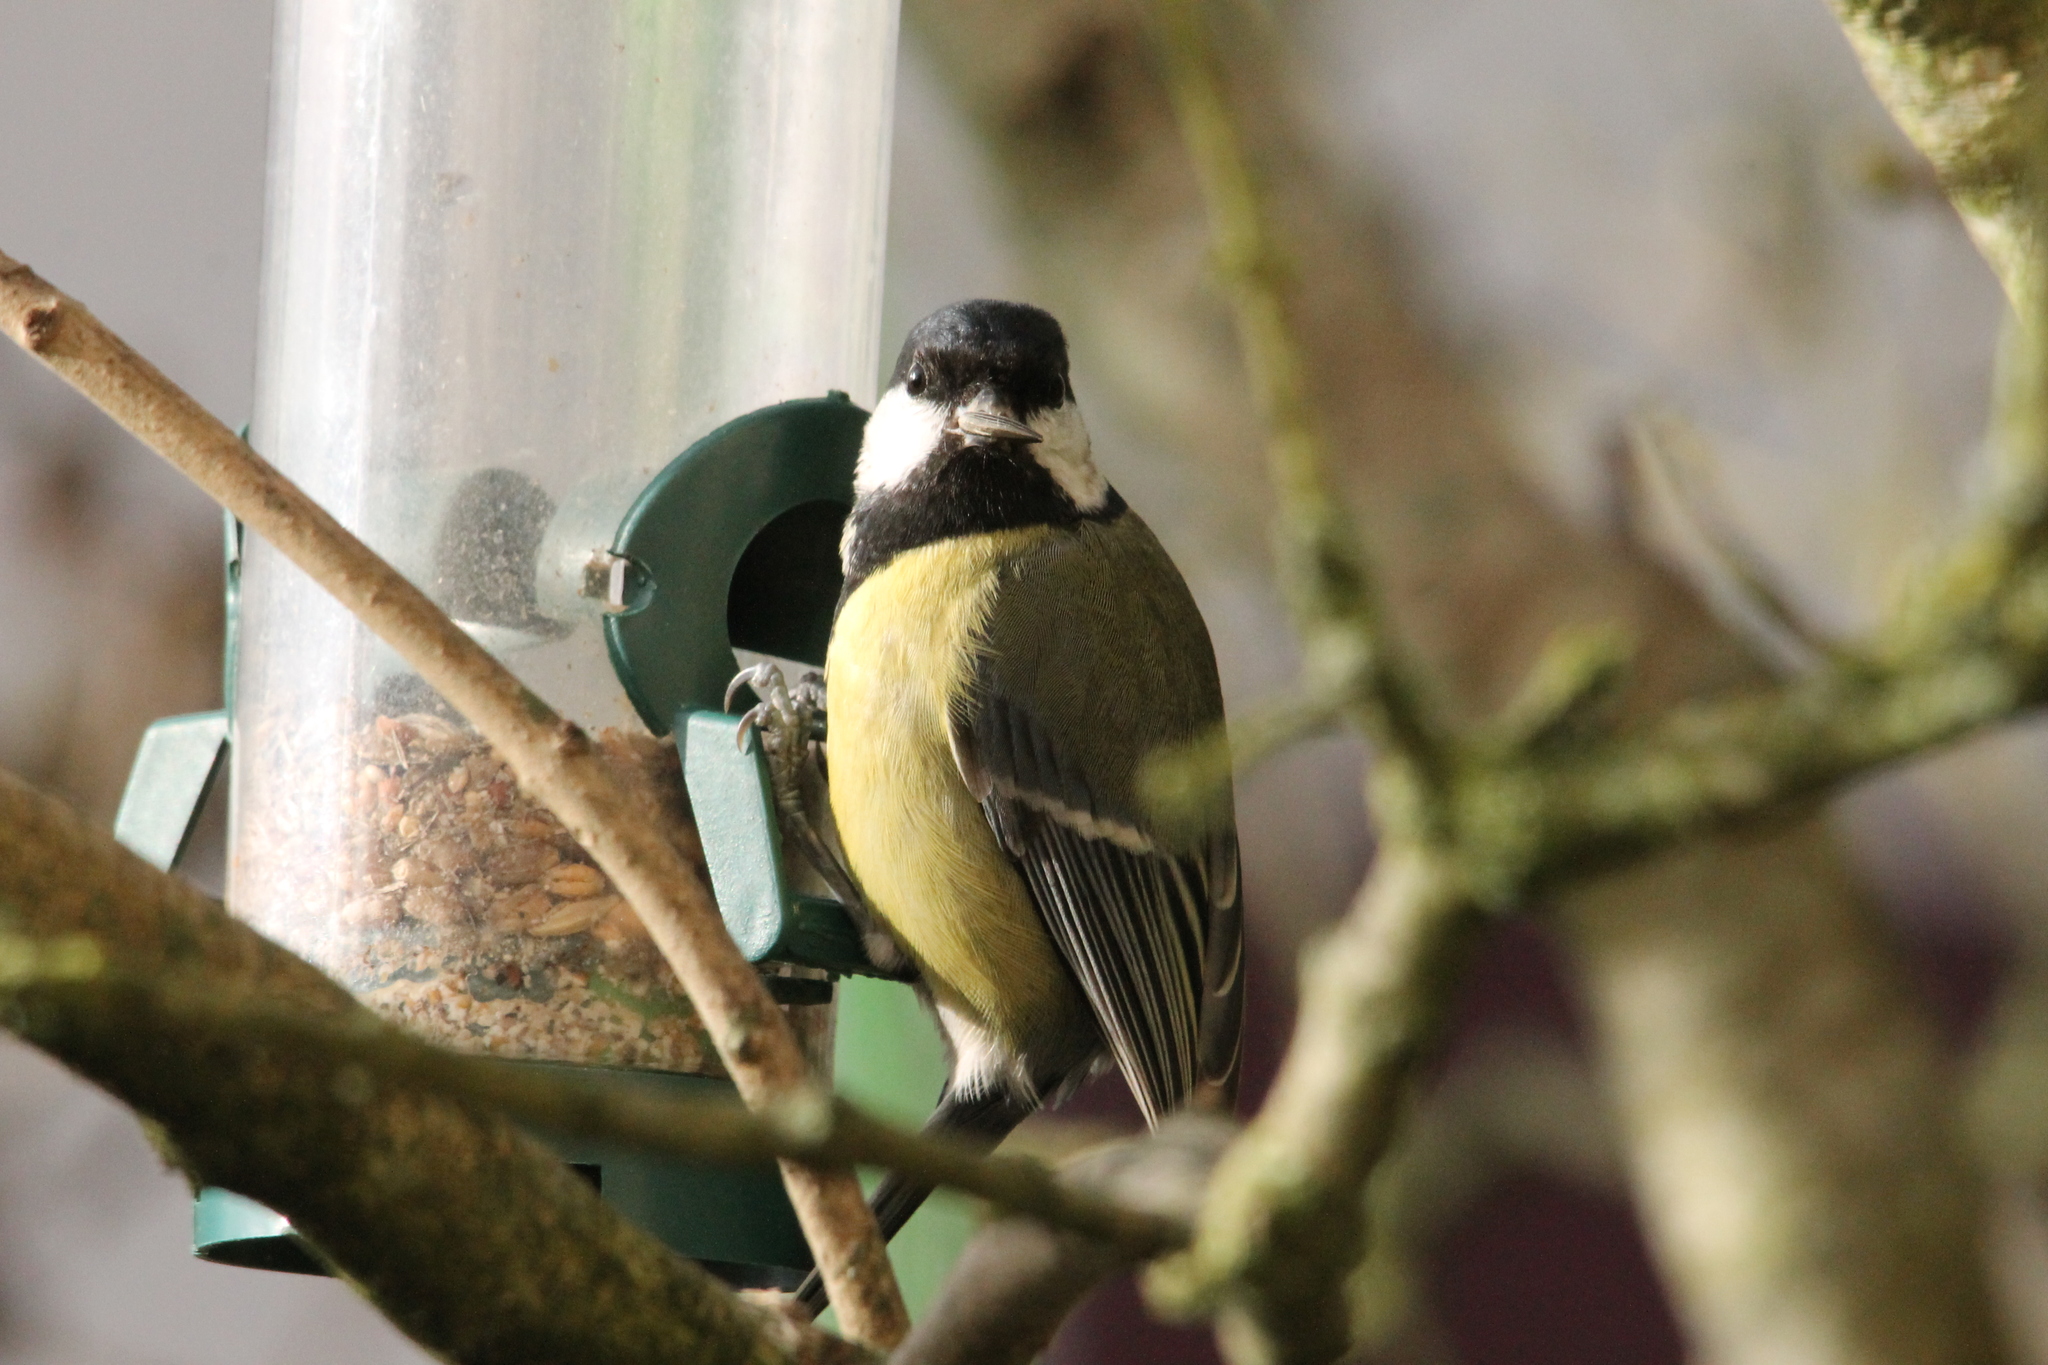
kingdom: Animalia
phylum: Chordata
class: Aves
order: Passeriformes
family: Paridae
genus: Parus
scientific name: Parus major
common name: Great tit
